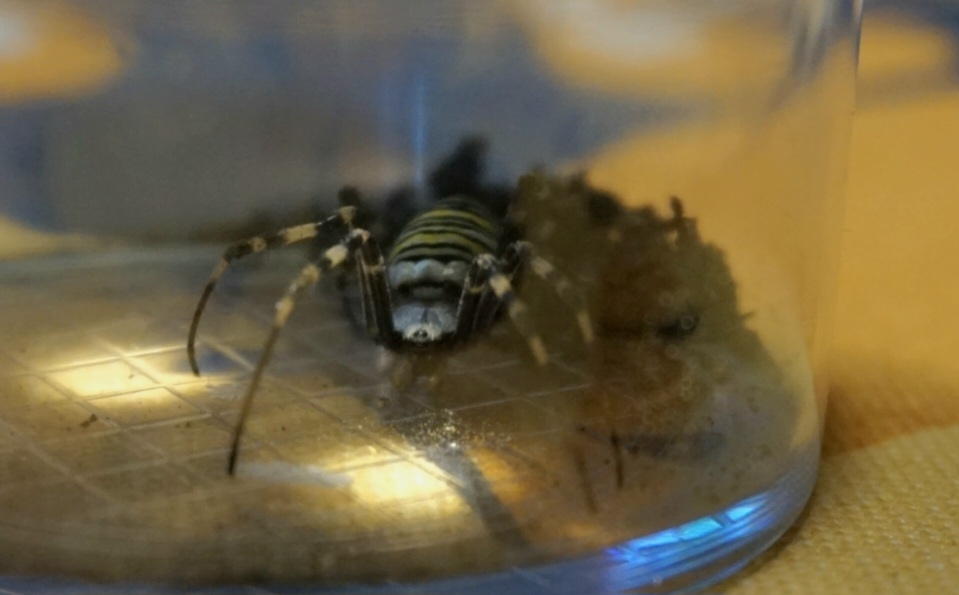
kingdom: Animalia
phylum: Arthropoda
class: Arachnida
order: Araneae
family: Araneidae
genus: Argiope
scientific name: Argiope bruennichi
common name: Wasp spider
